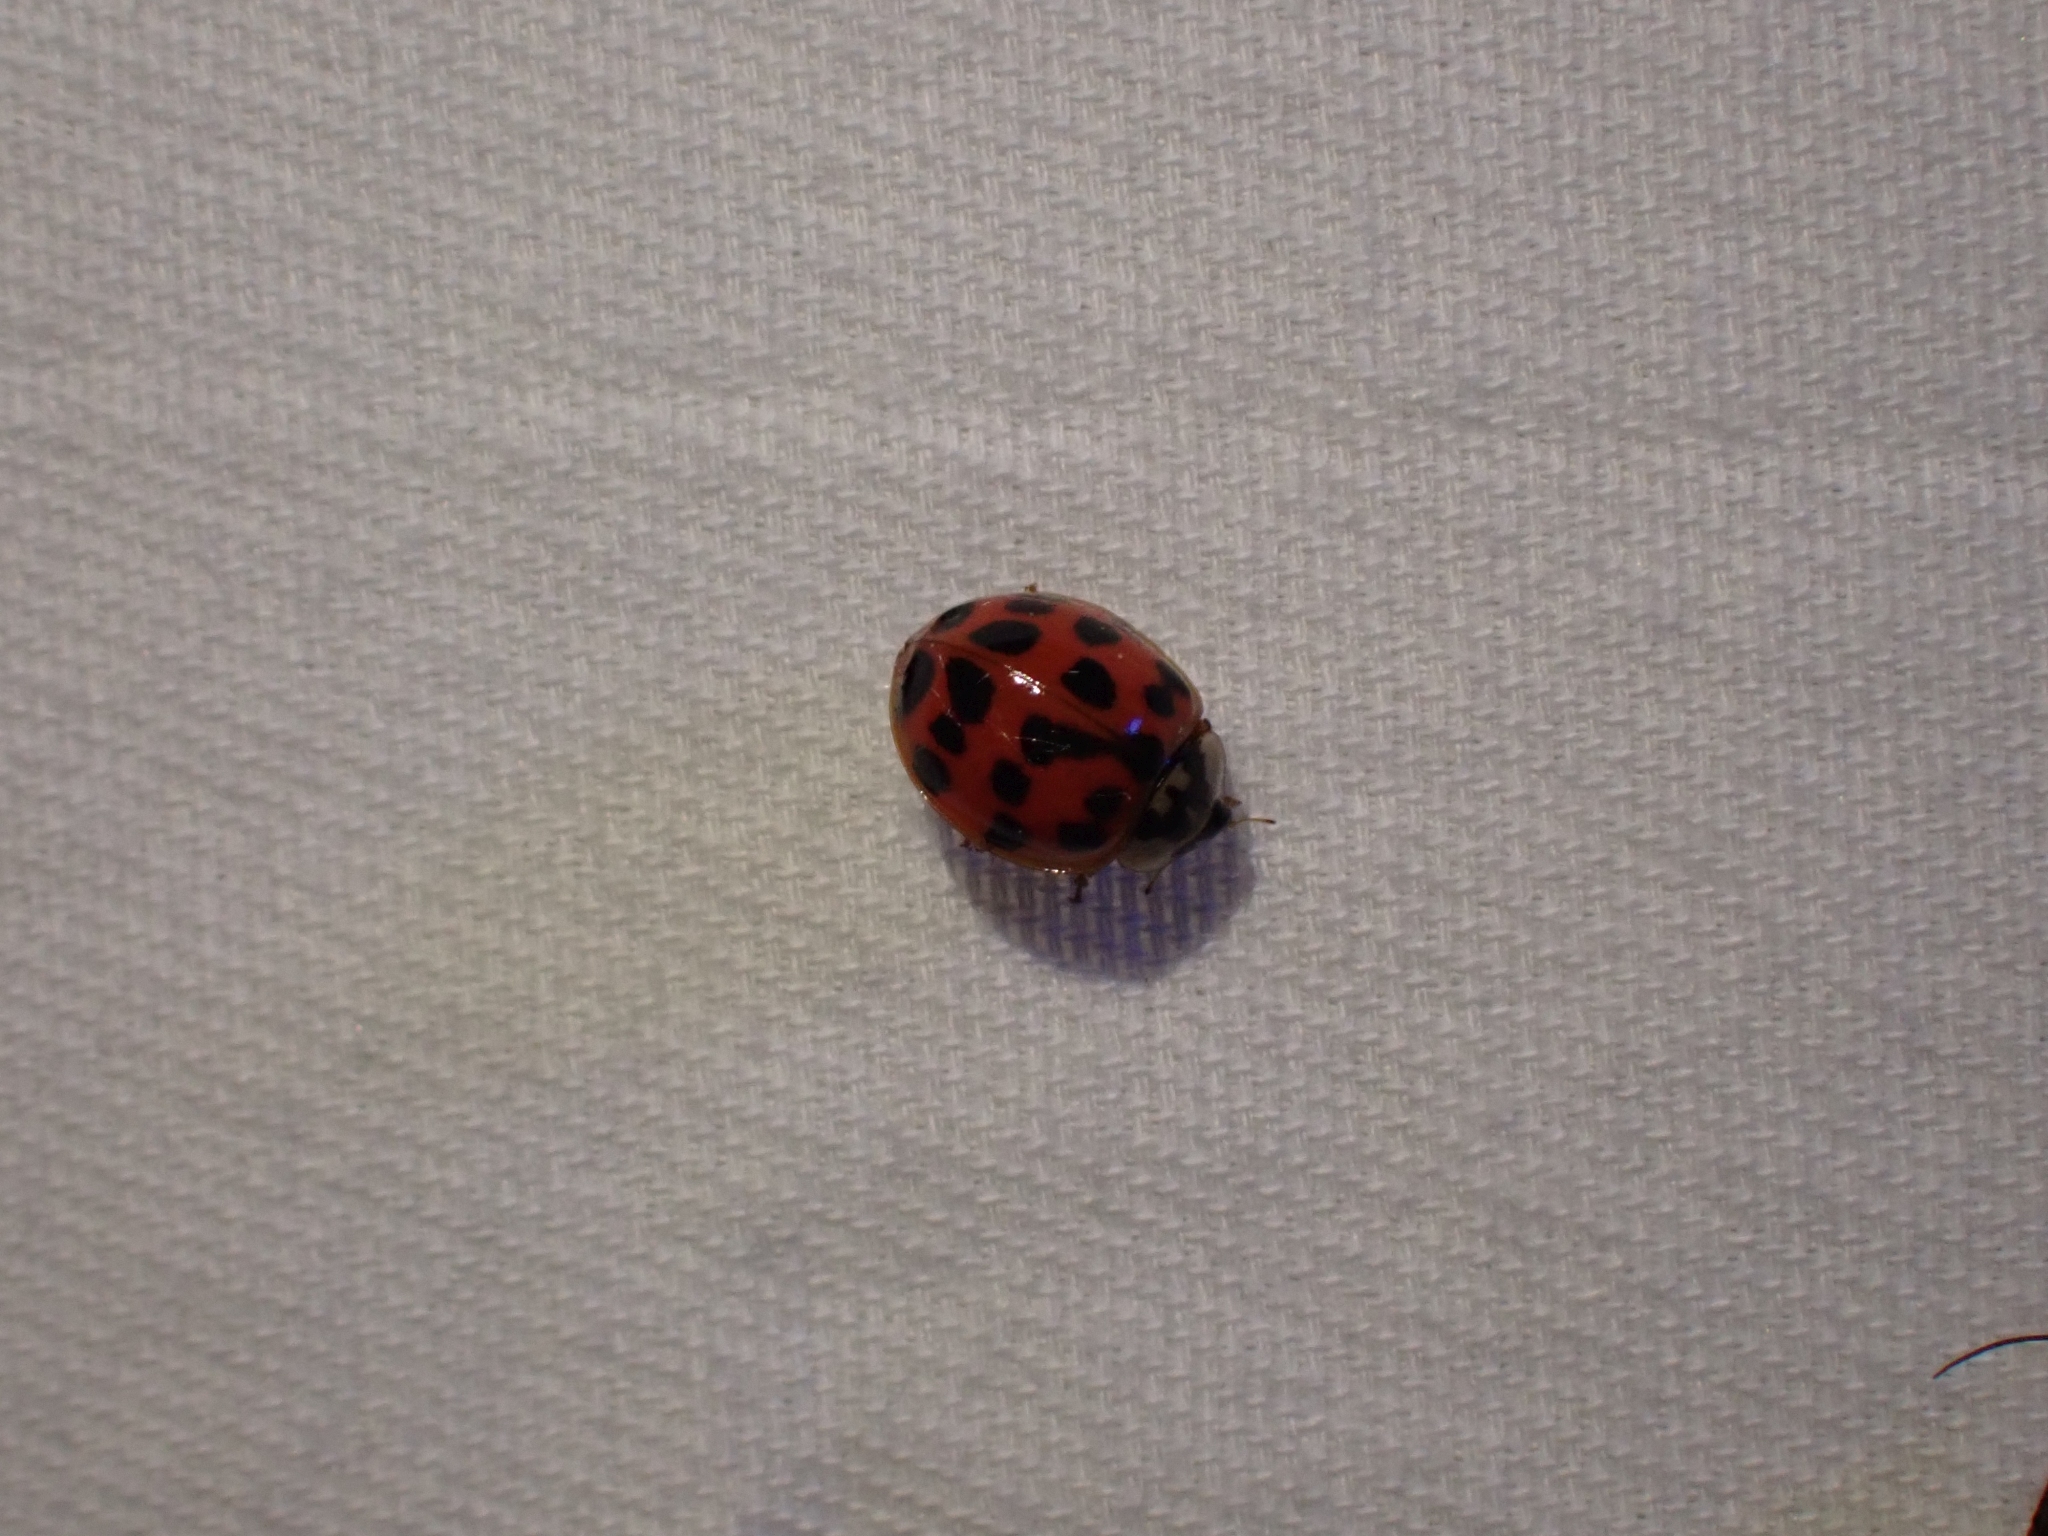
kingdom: Animalia
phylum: Arthropoda
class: Insecta
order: Coleoptera
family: Coccinellidae
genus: Harmonia
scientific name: Harmonia axyridis
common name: Harlequin ladybird
